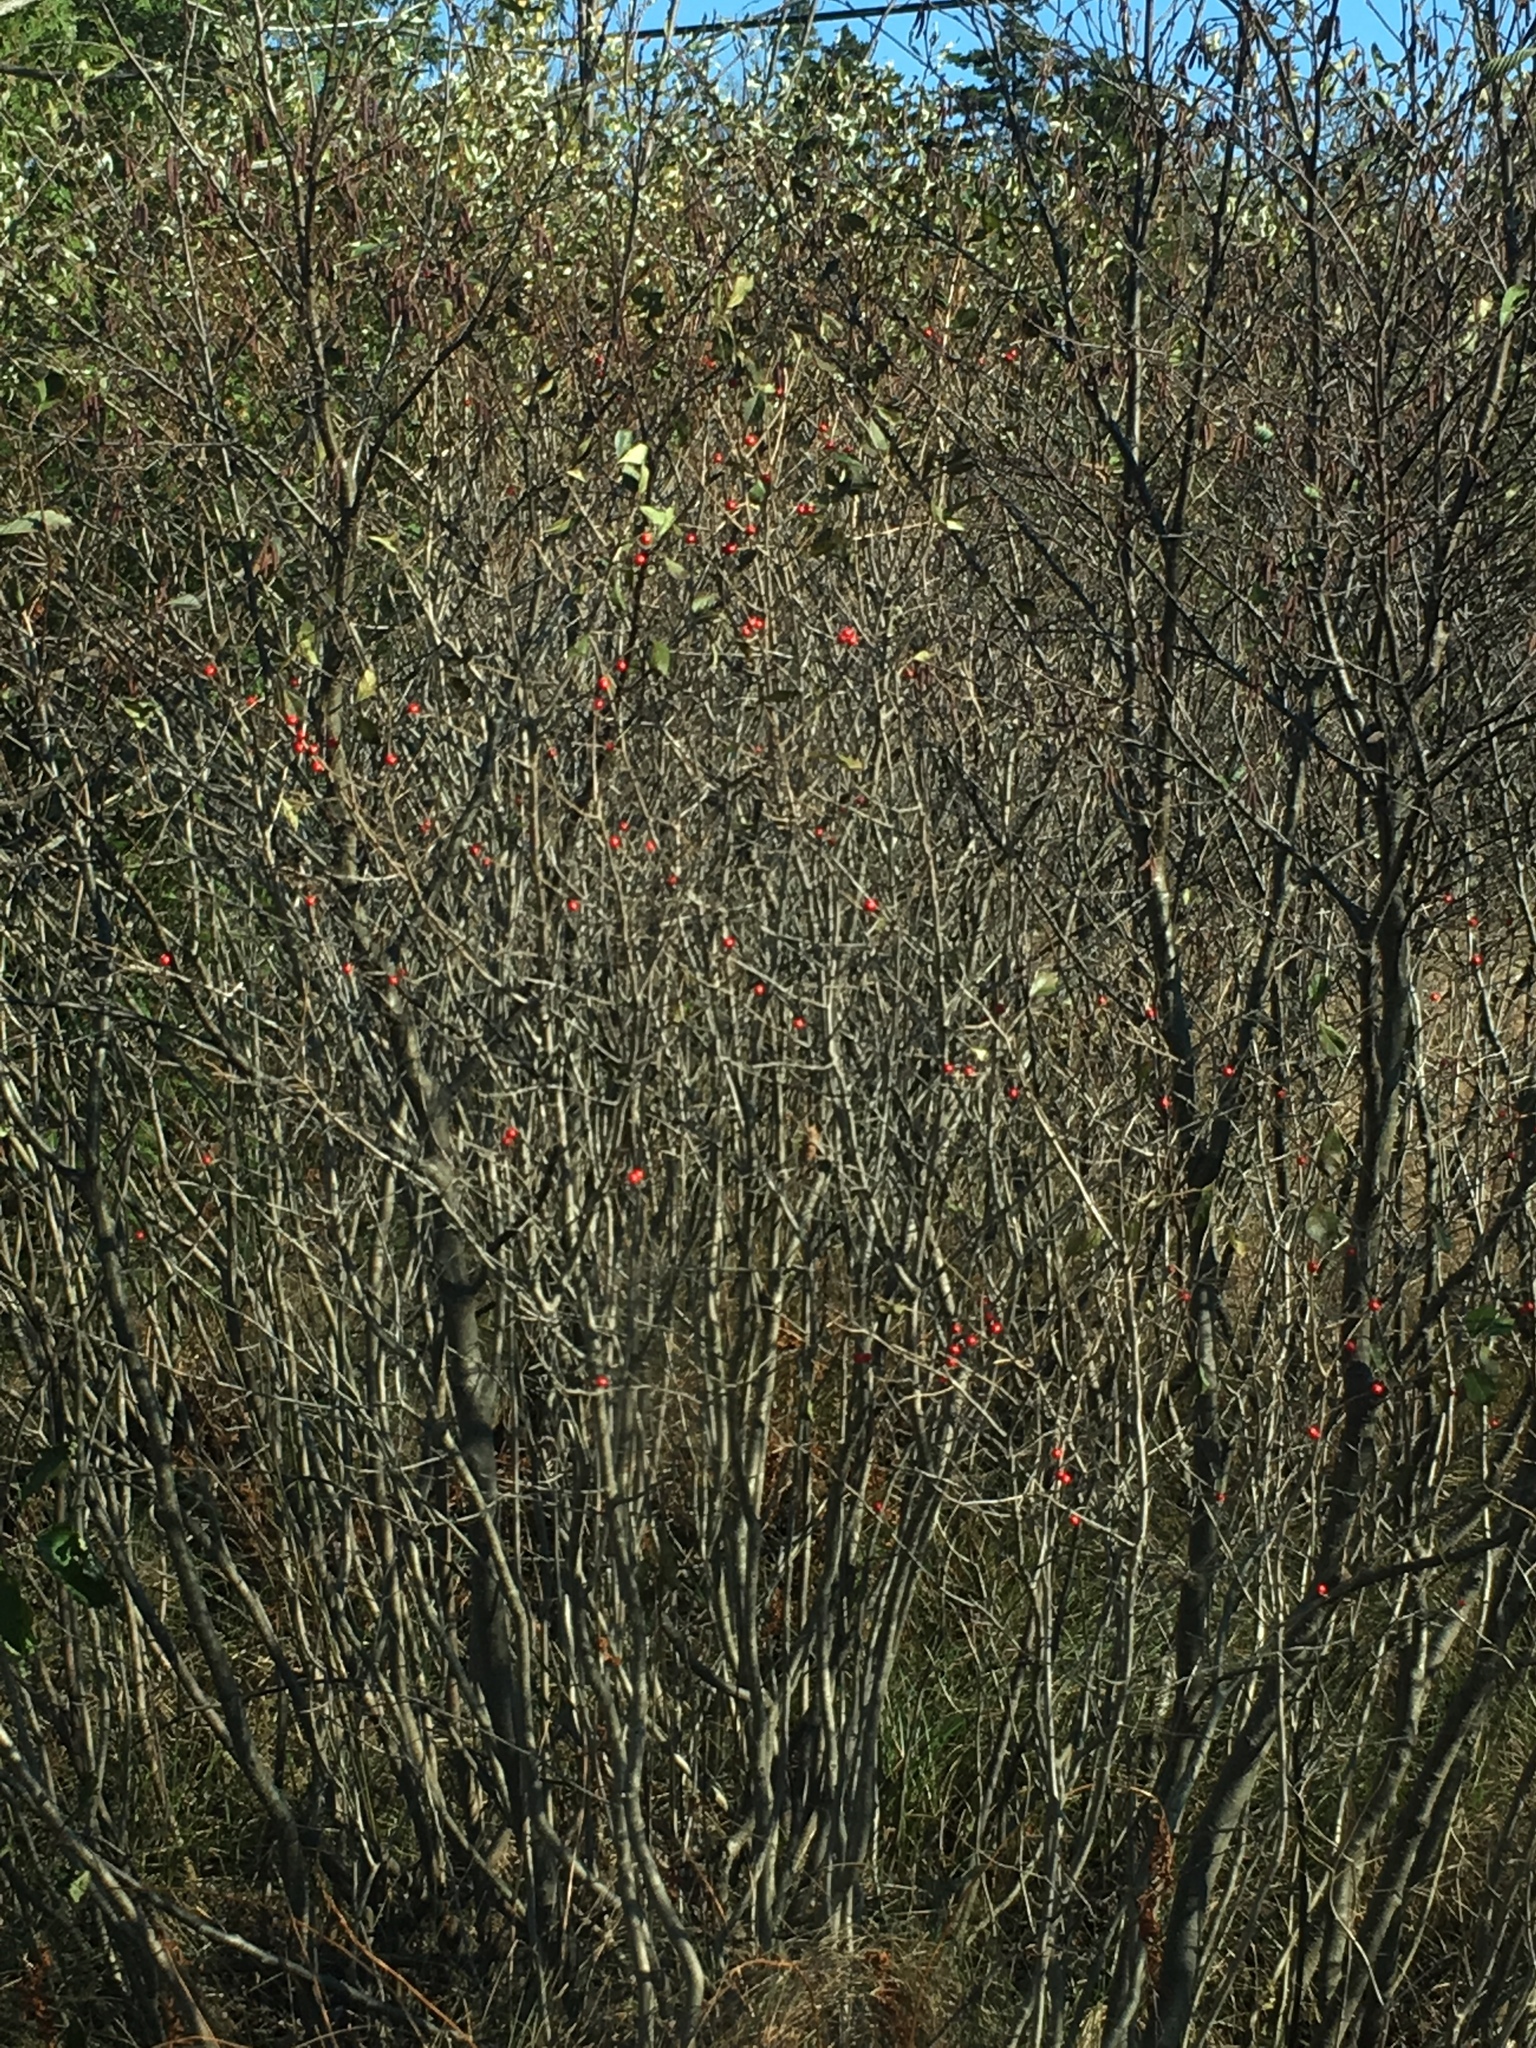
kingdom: Plantae
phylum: Tracheophyta
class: Magnoliopsida
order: Aquifoliales
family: Aquifoliaceae
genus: Ilex
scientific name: Ilex verticillata
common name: Virginia winterberry
